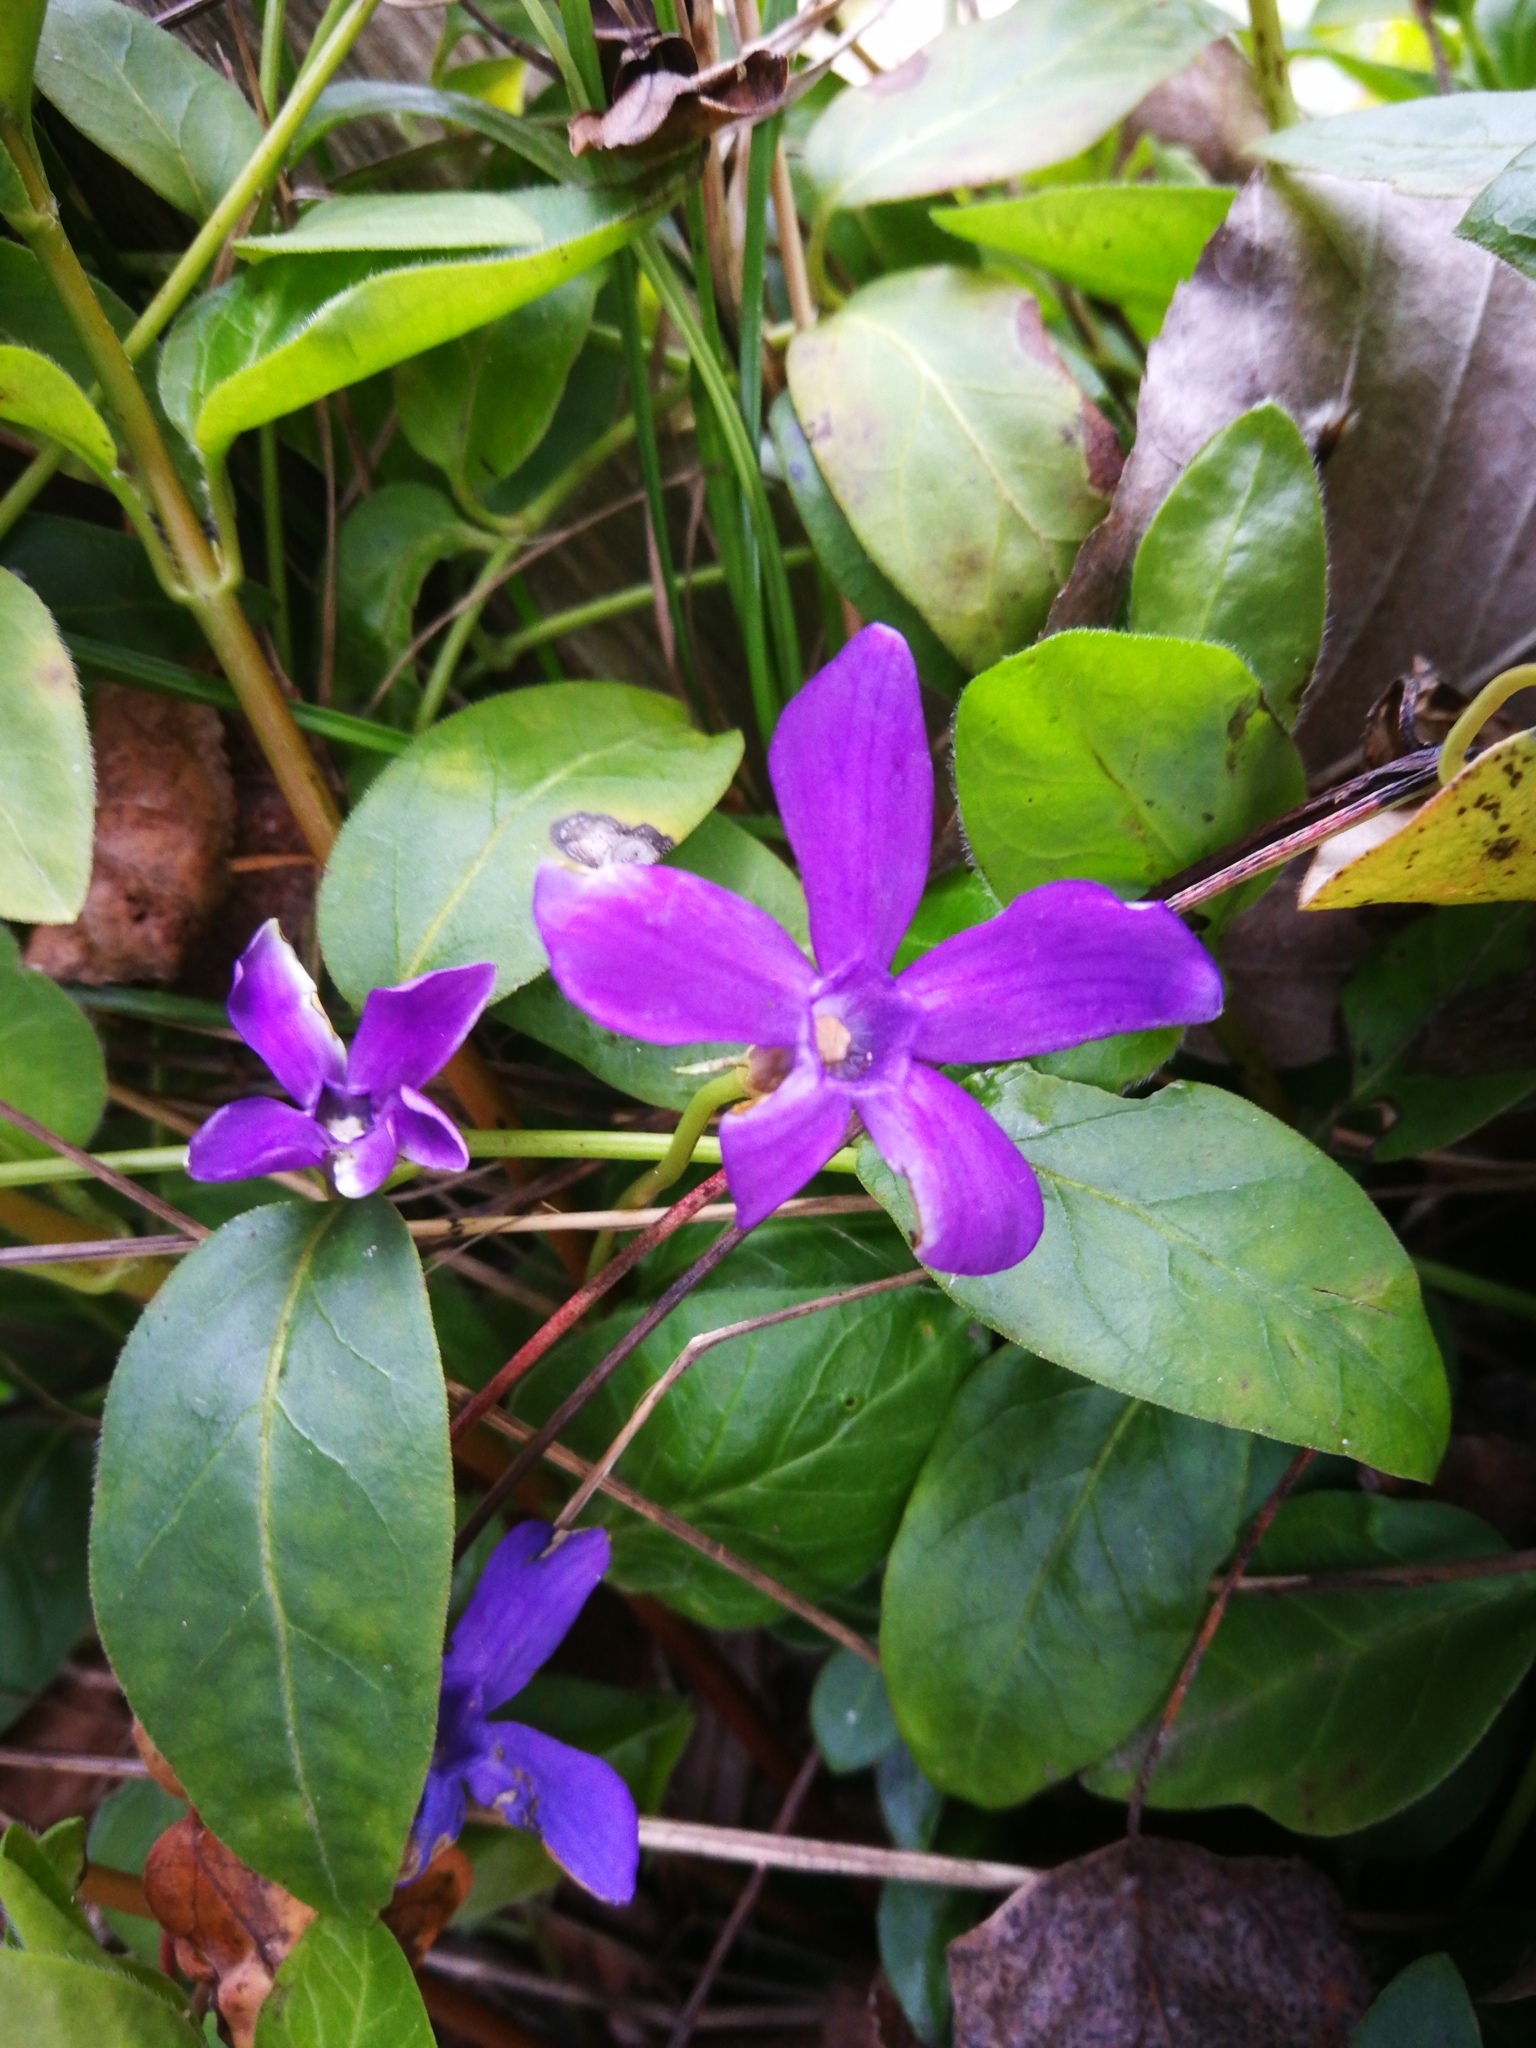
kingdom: Plantae
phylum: Tracheophyta
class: Magnoliopsida
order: Gentianales
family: Apocynaceae
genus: Vinca
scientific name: Vinca major
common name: Greater periwinkle
